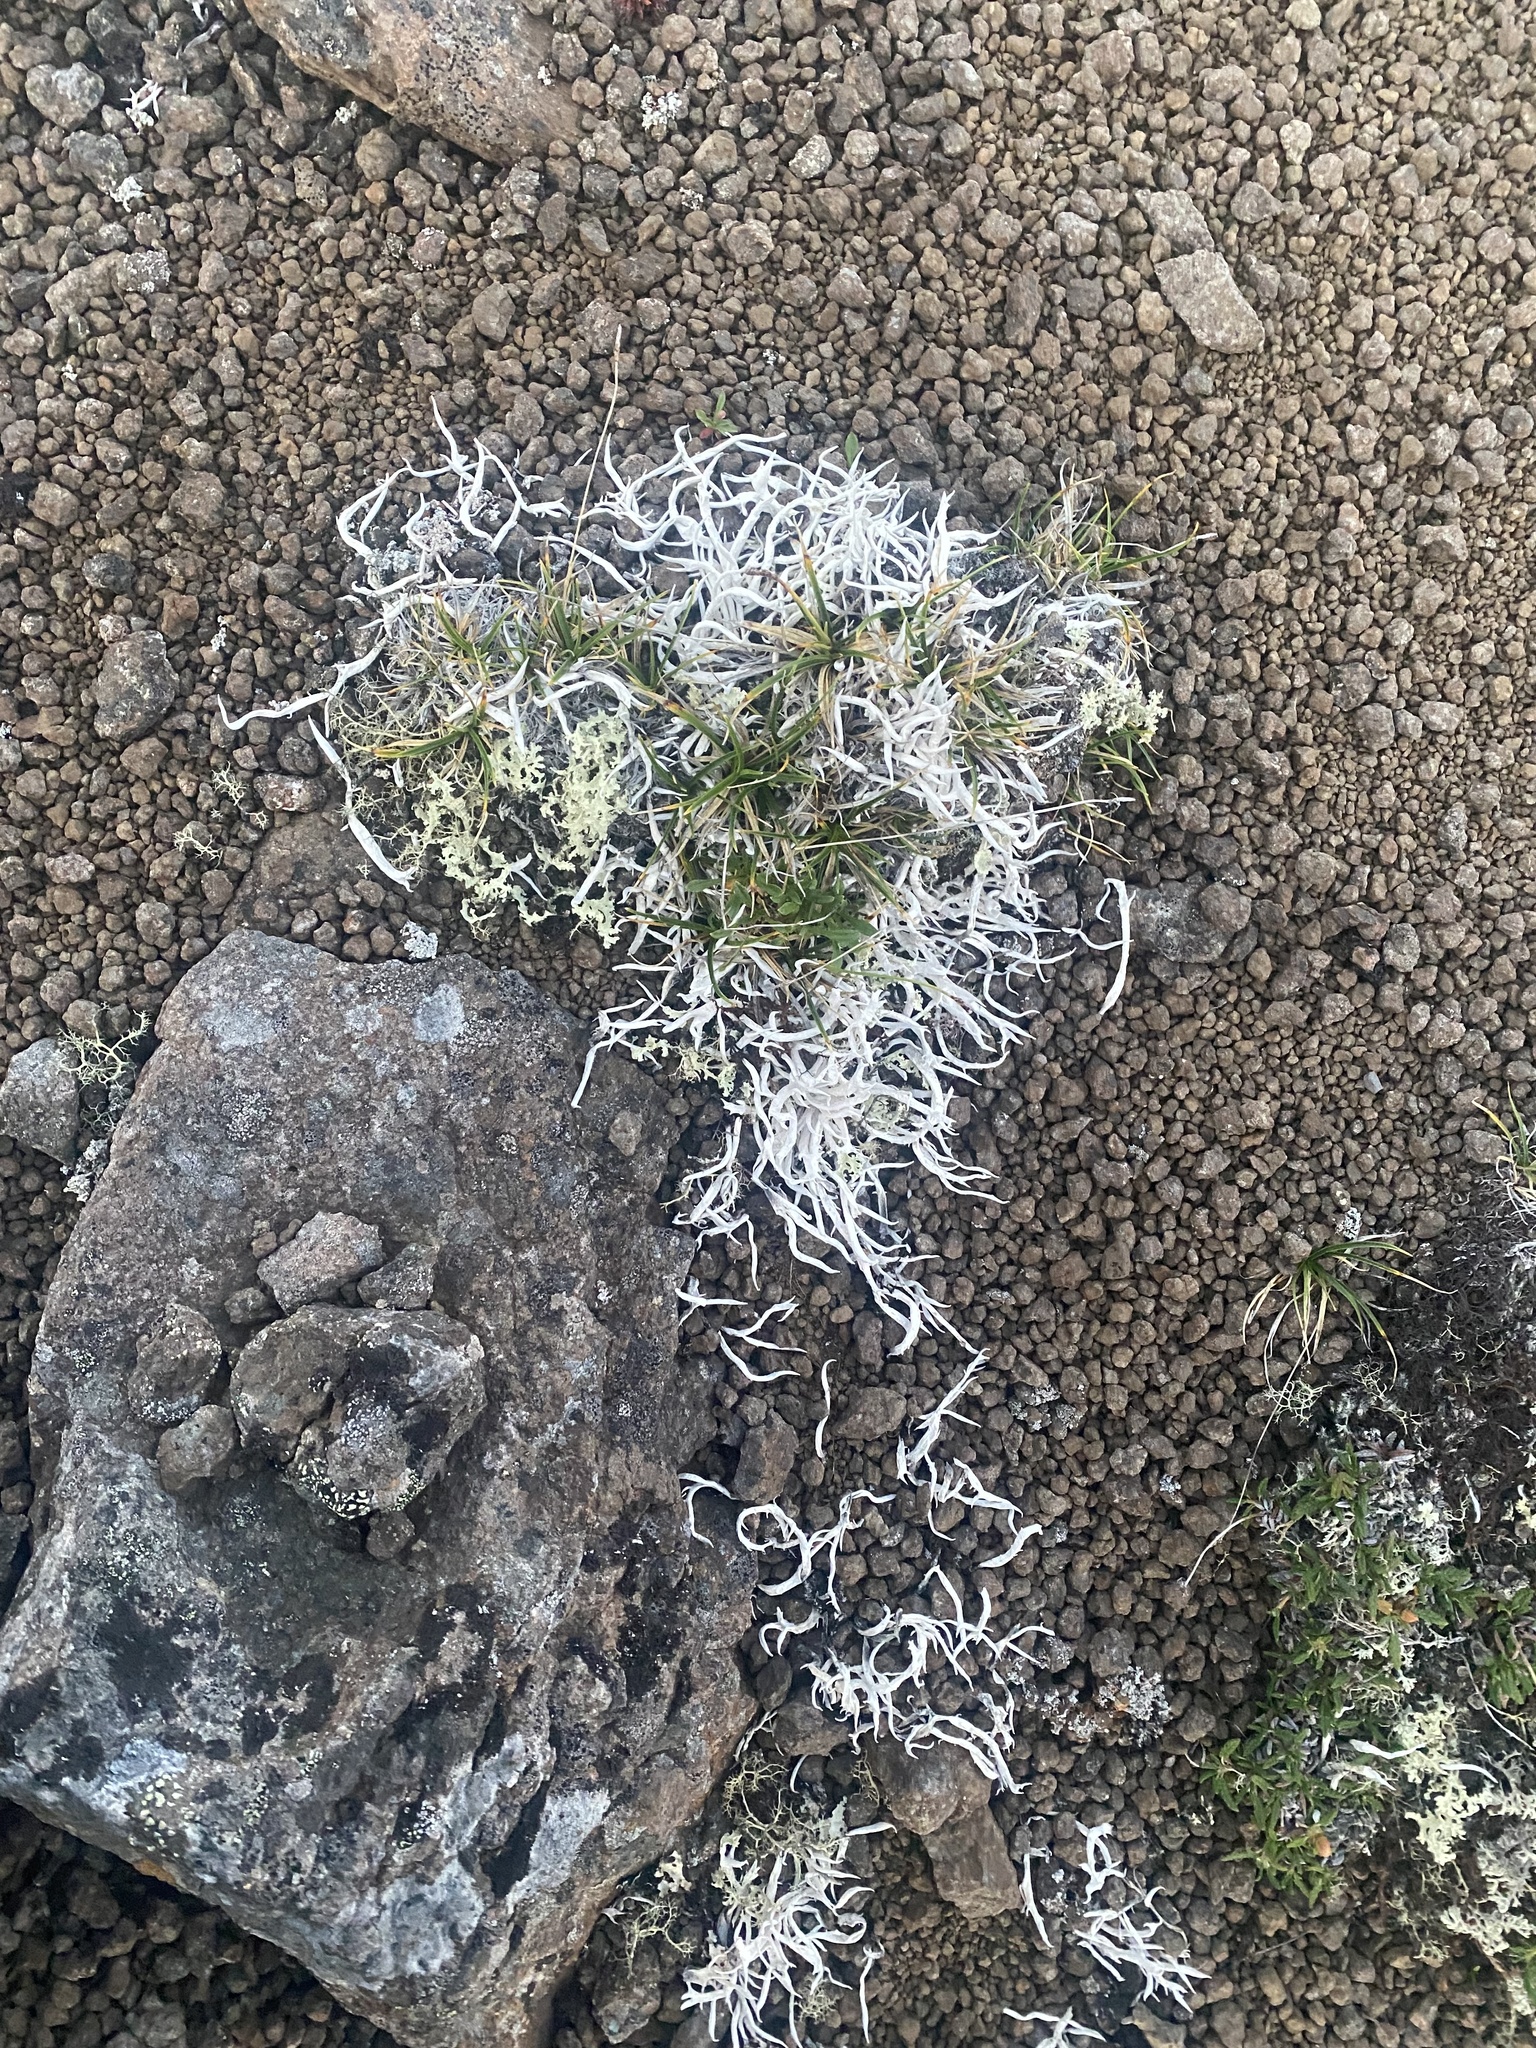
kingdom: Fungi
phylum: Ascomycota
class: Lecanoromycetes
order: Pertusariales
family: Icmadophilaceae
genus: Thamnolia
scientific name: Thamnolia vermicularis
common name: Whiteworm lichen
